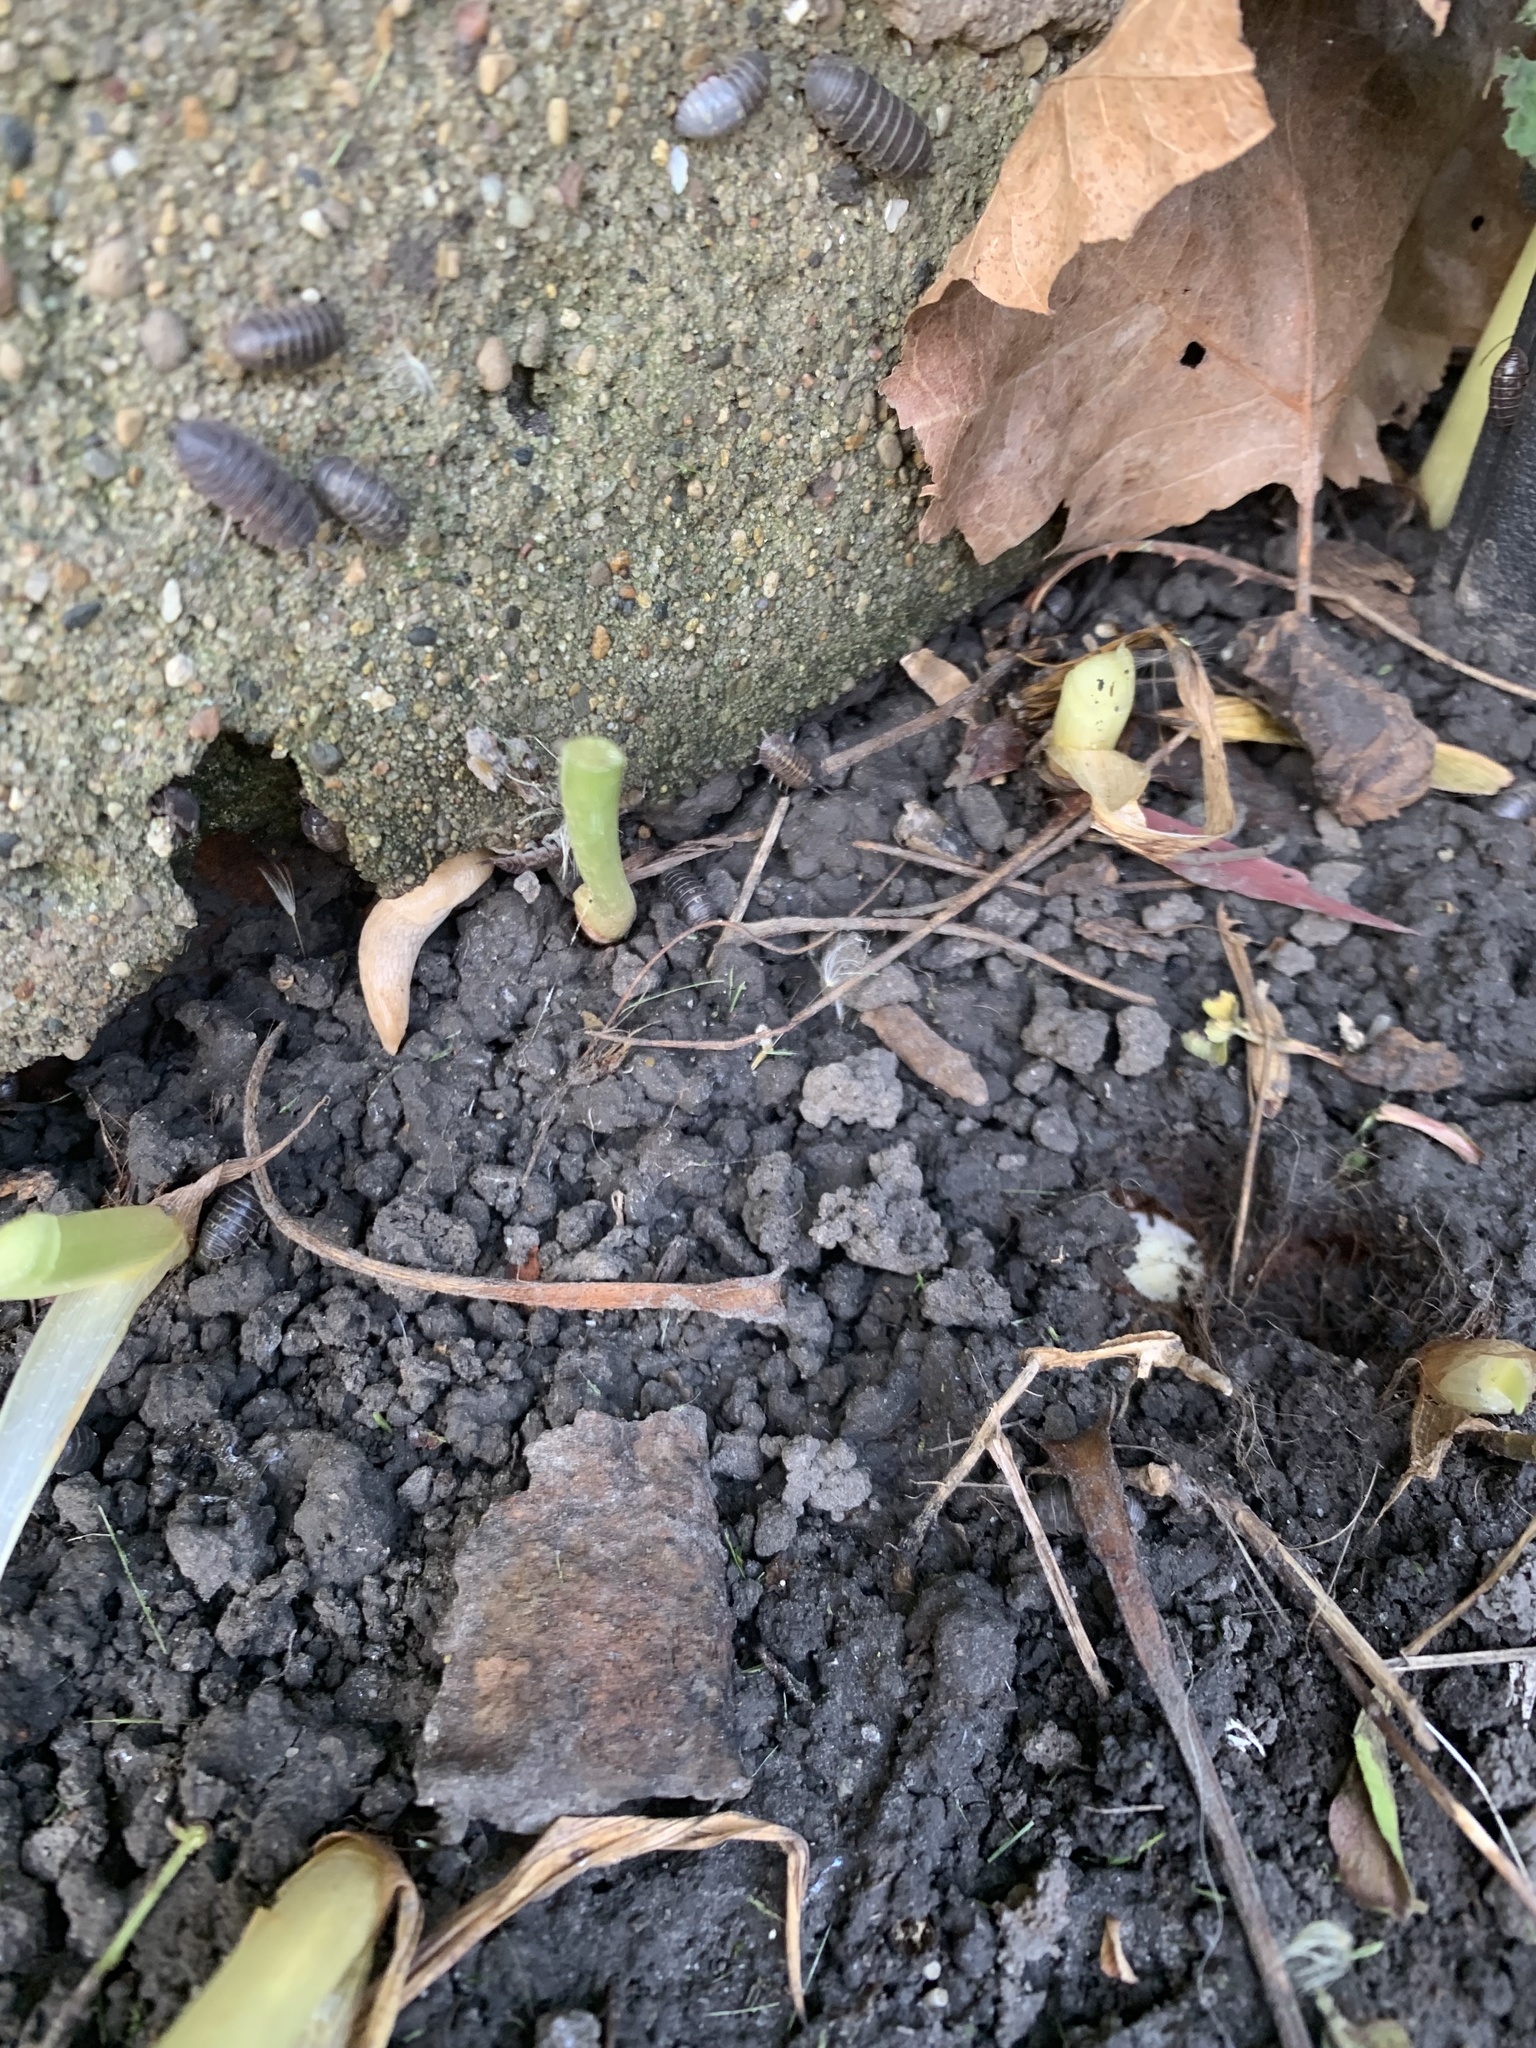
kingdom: Animalia
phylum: Mollusca
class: Gastropoda
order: Stylommatophora
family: Agriolimacidae
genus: Deroceras
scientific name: Deroceras reticulatum
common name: Gray field slug
